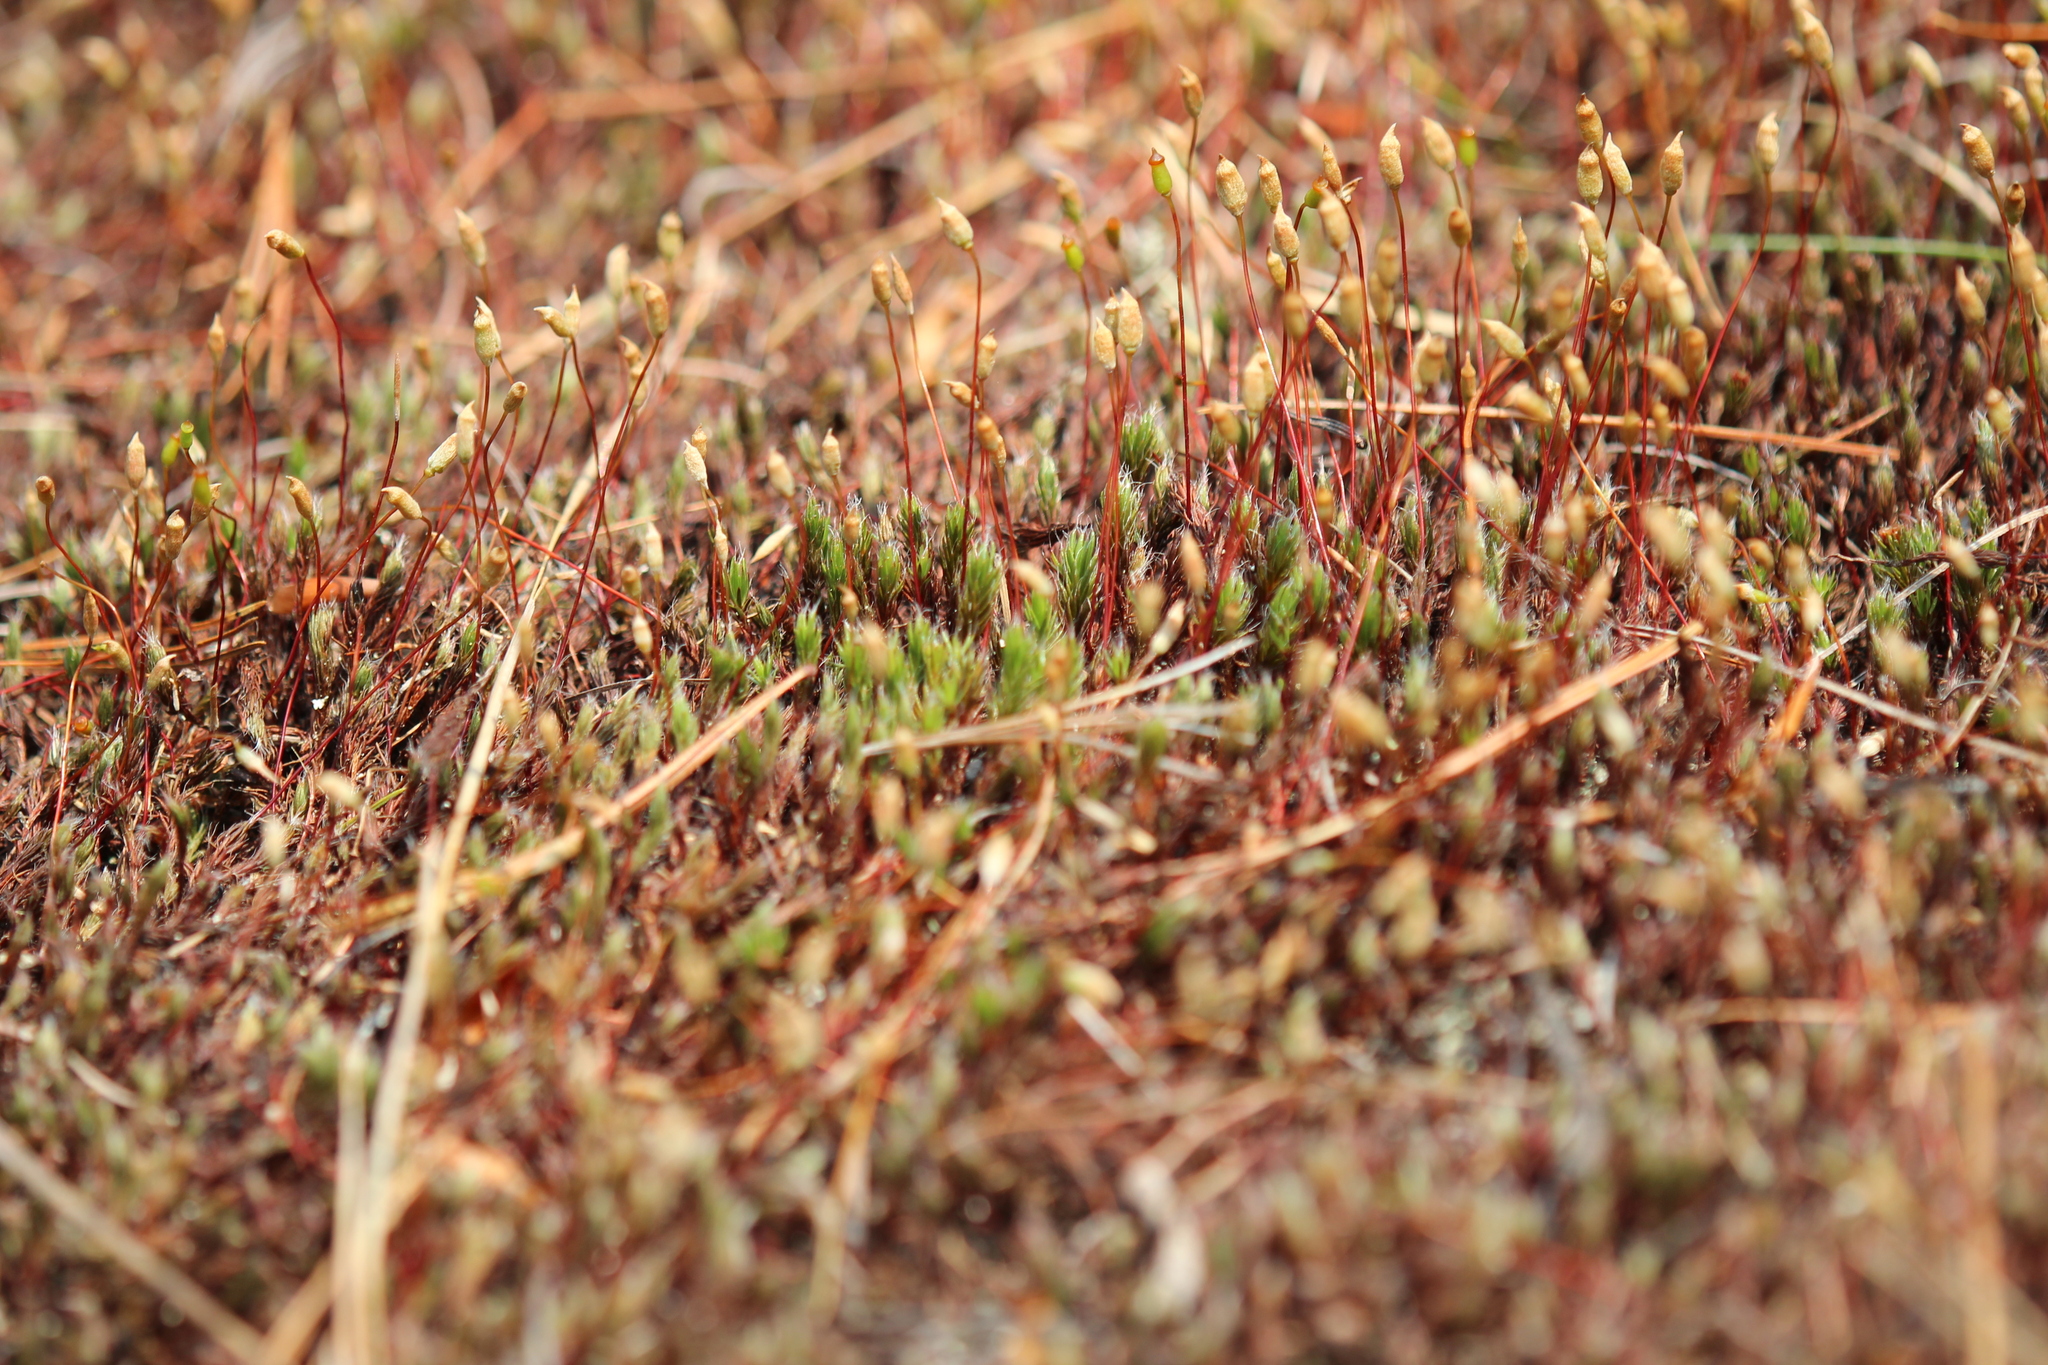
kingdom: Plantae
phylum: Bryophyta
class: Polytrichopsida
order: Polytrichales
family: Polytrichaceae
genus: Polytrichum
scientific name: Polytrichum piliferum
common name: Bristly haircap
